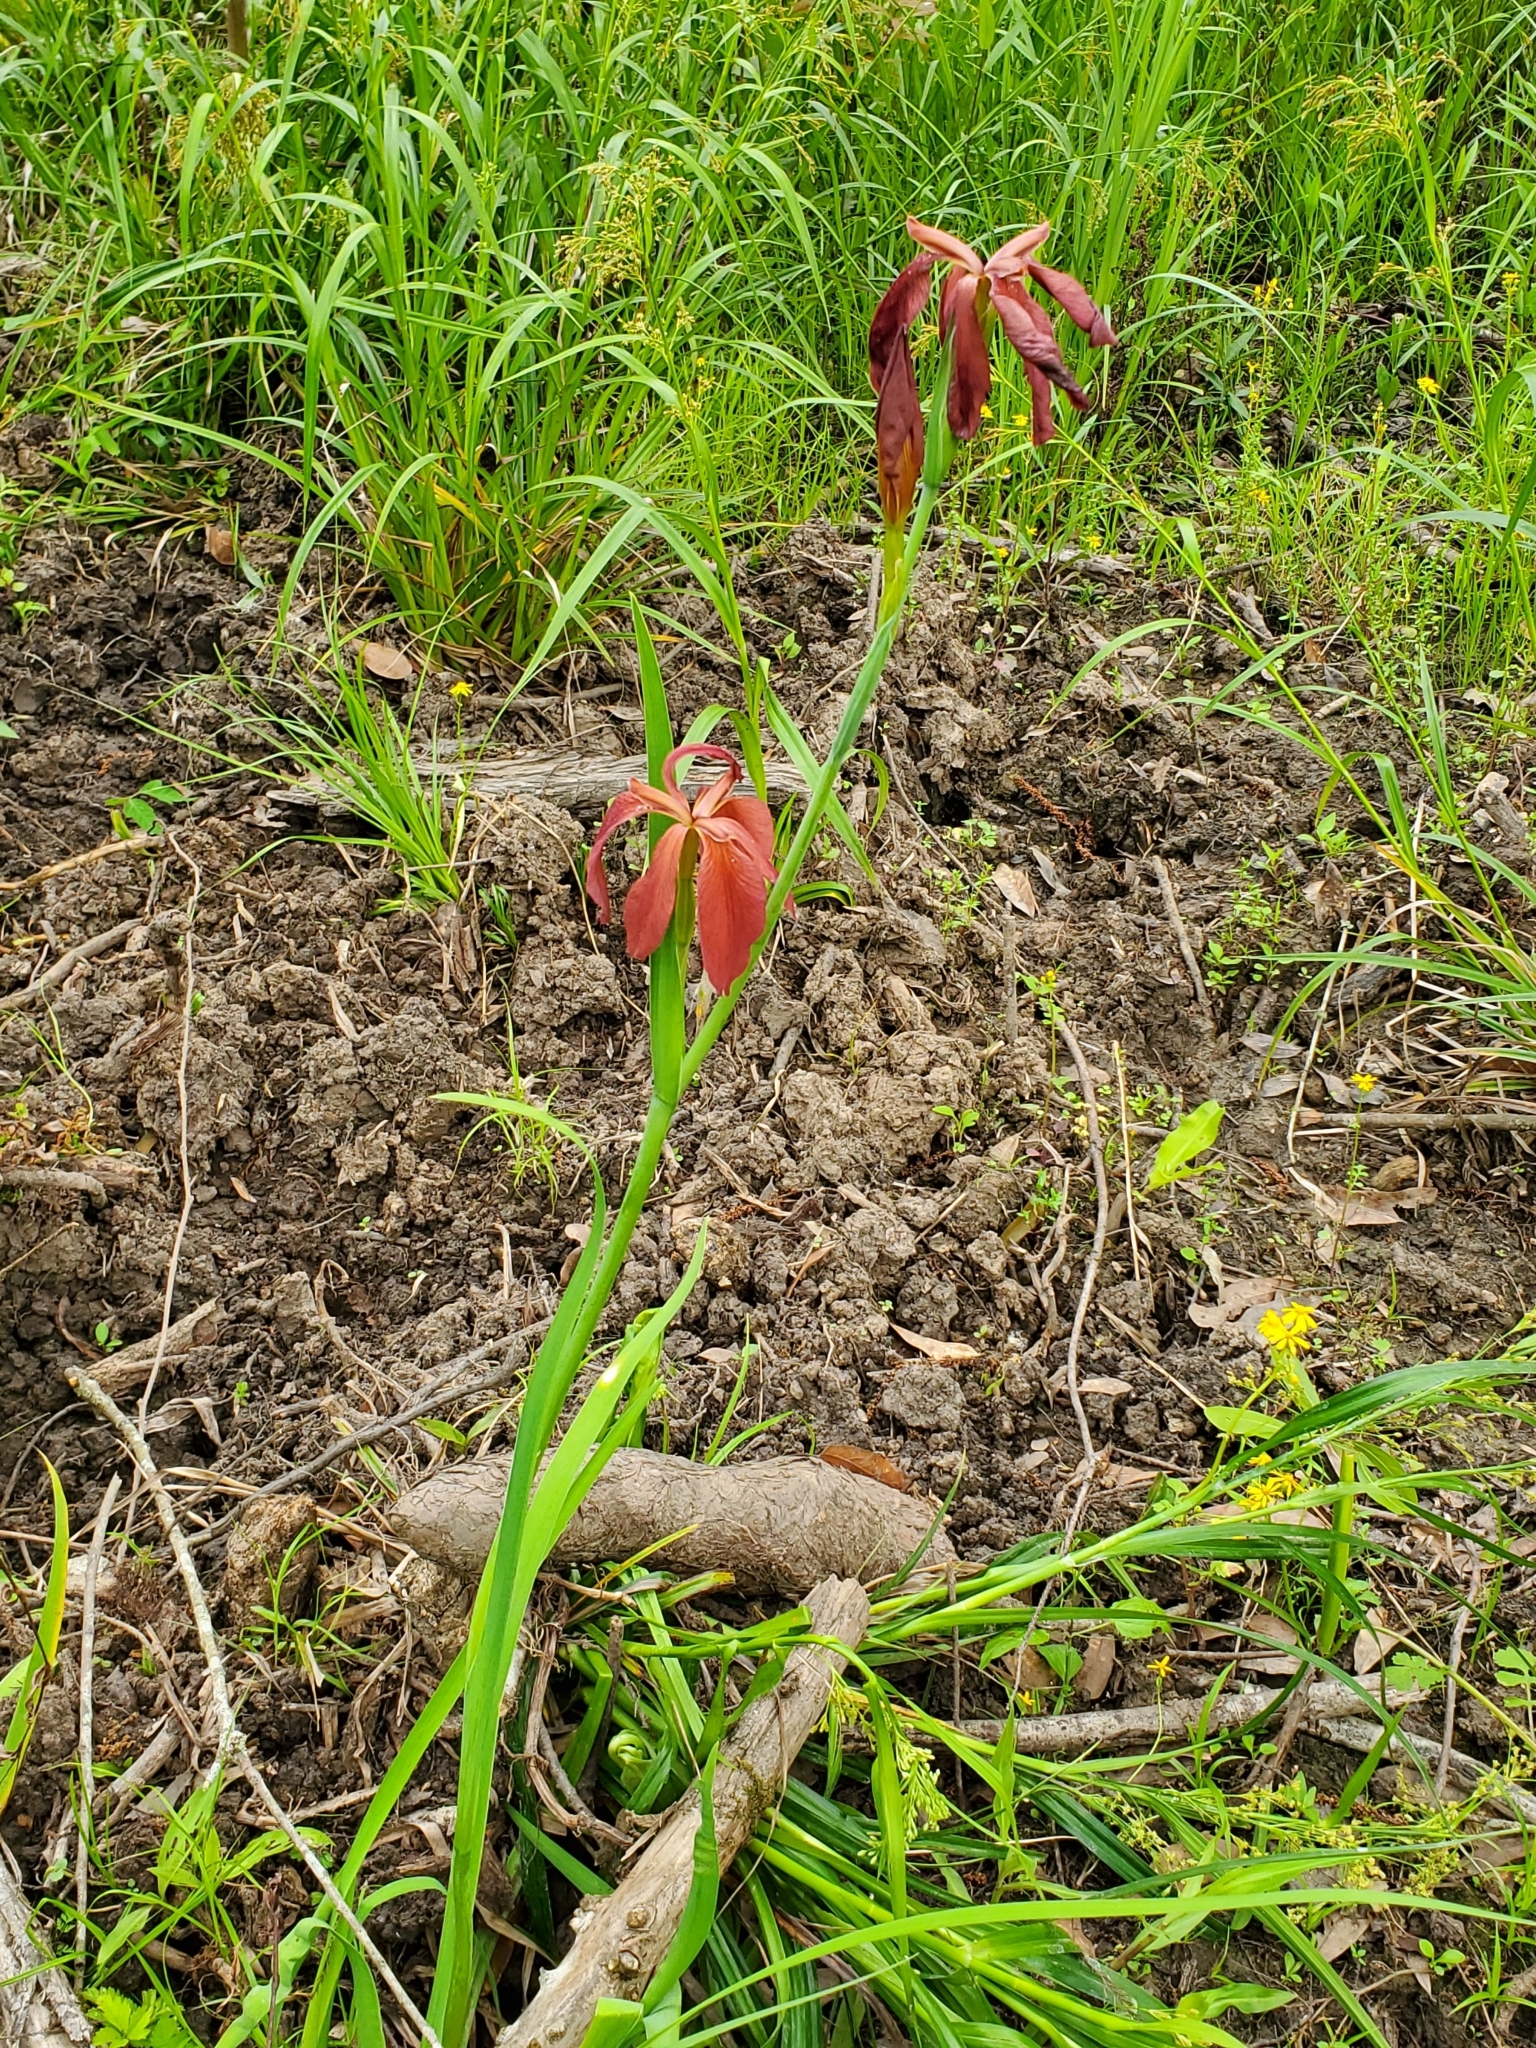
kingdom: Plantae
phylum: Tracheophyta
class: Liliopsida
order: Asparagales
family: Iridaceae
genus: Iris
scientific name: Iris fulva
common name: Copper iris
